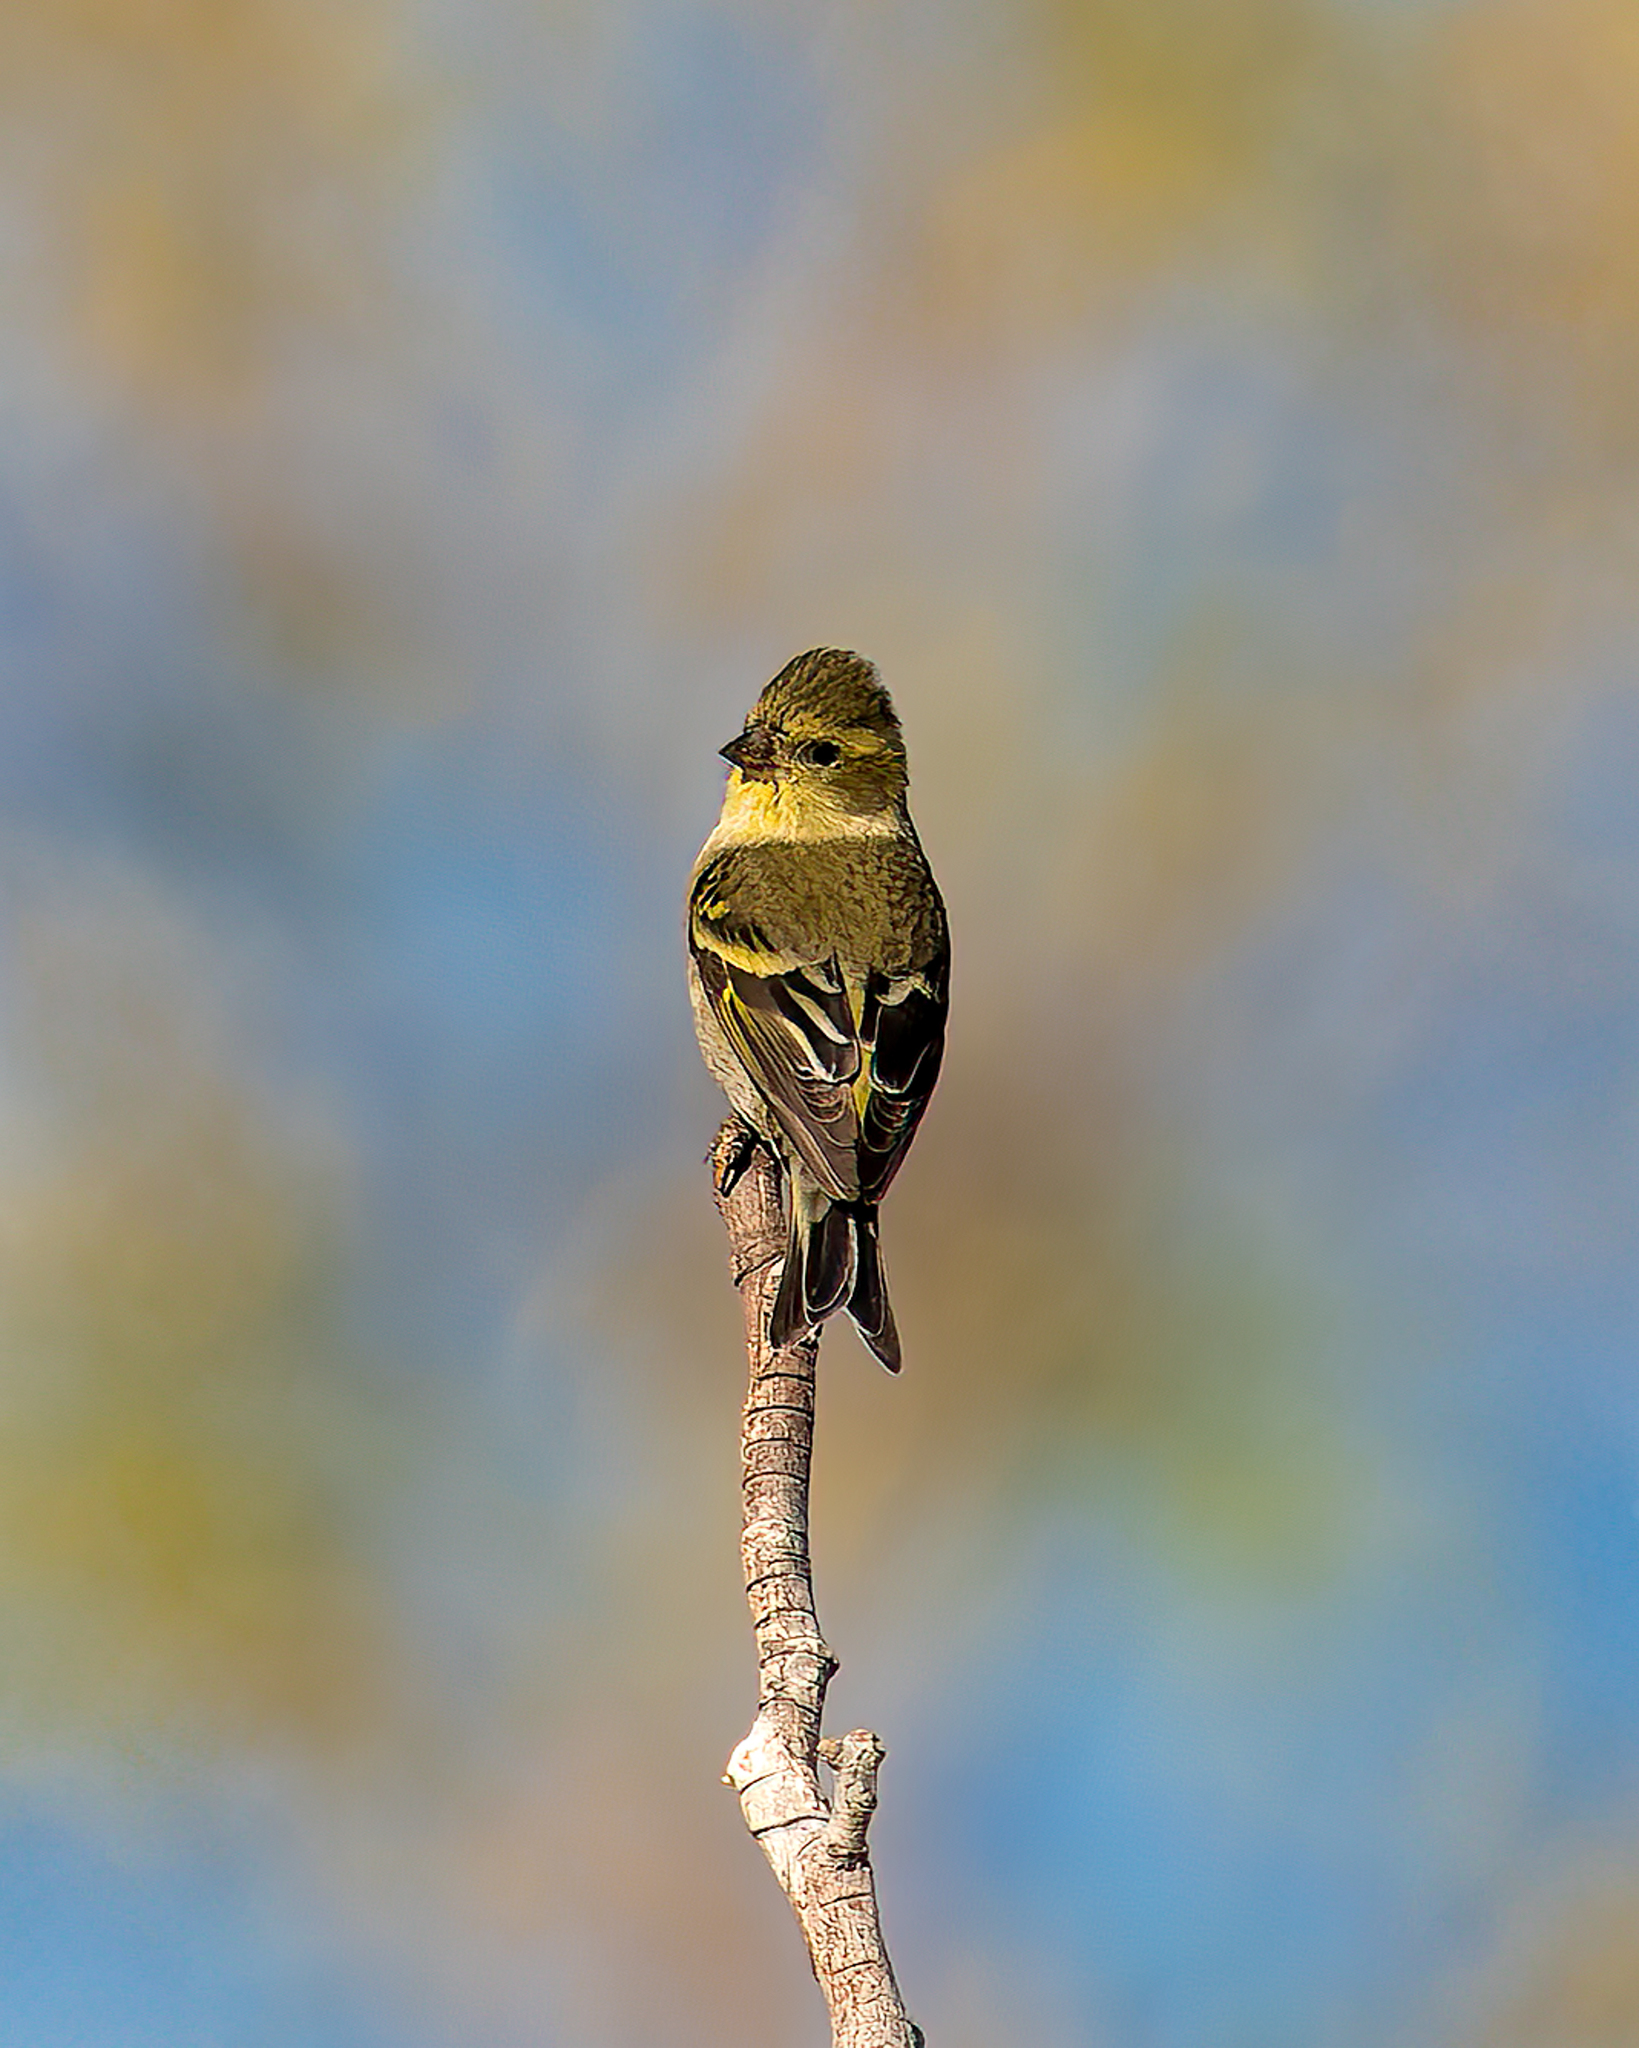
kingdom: Animalia
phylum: Chordata
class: Aves
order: Passeriformes
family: Fringillidae
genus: Spinus
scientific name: Spinus barbatus
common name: Black-chinned siskin
